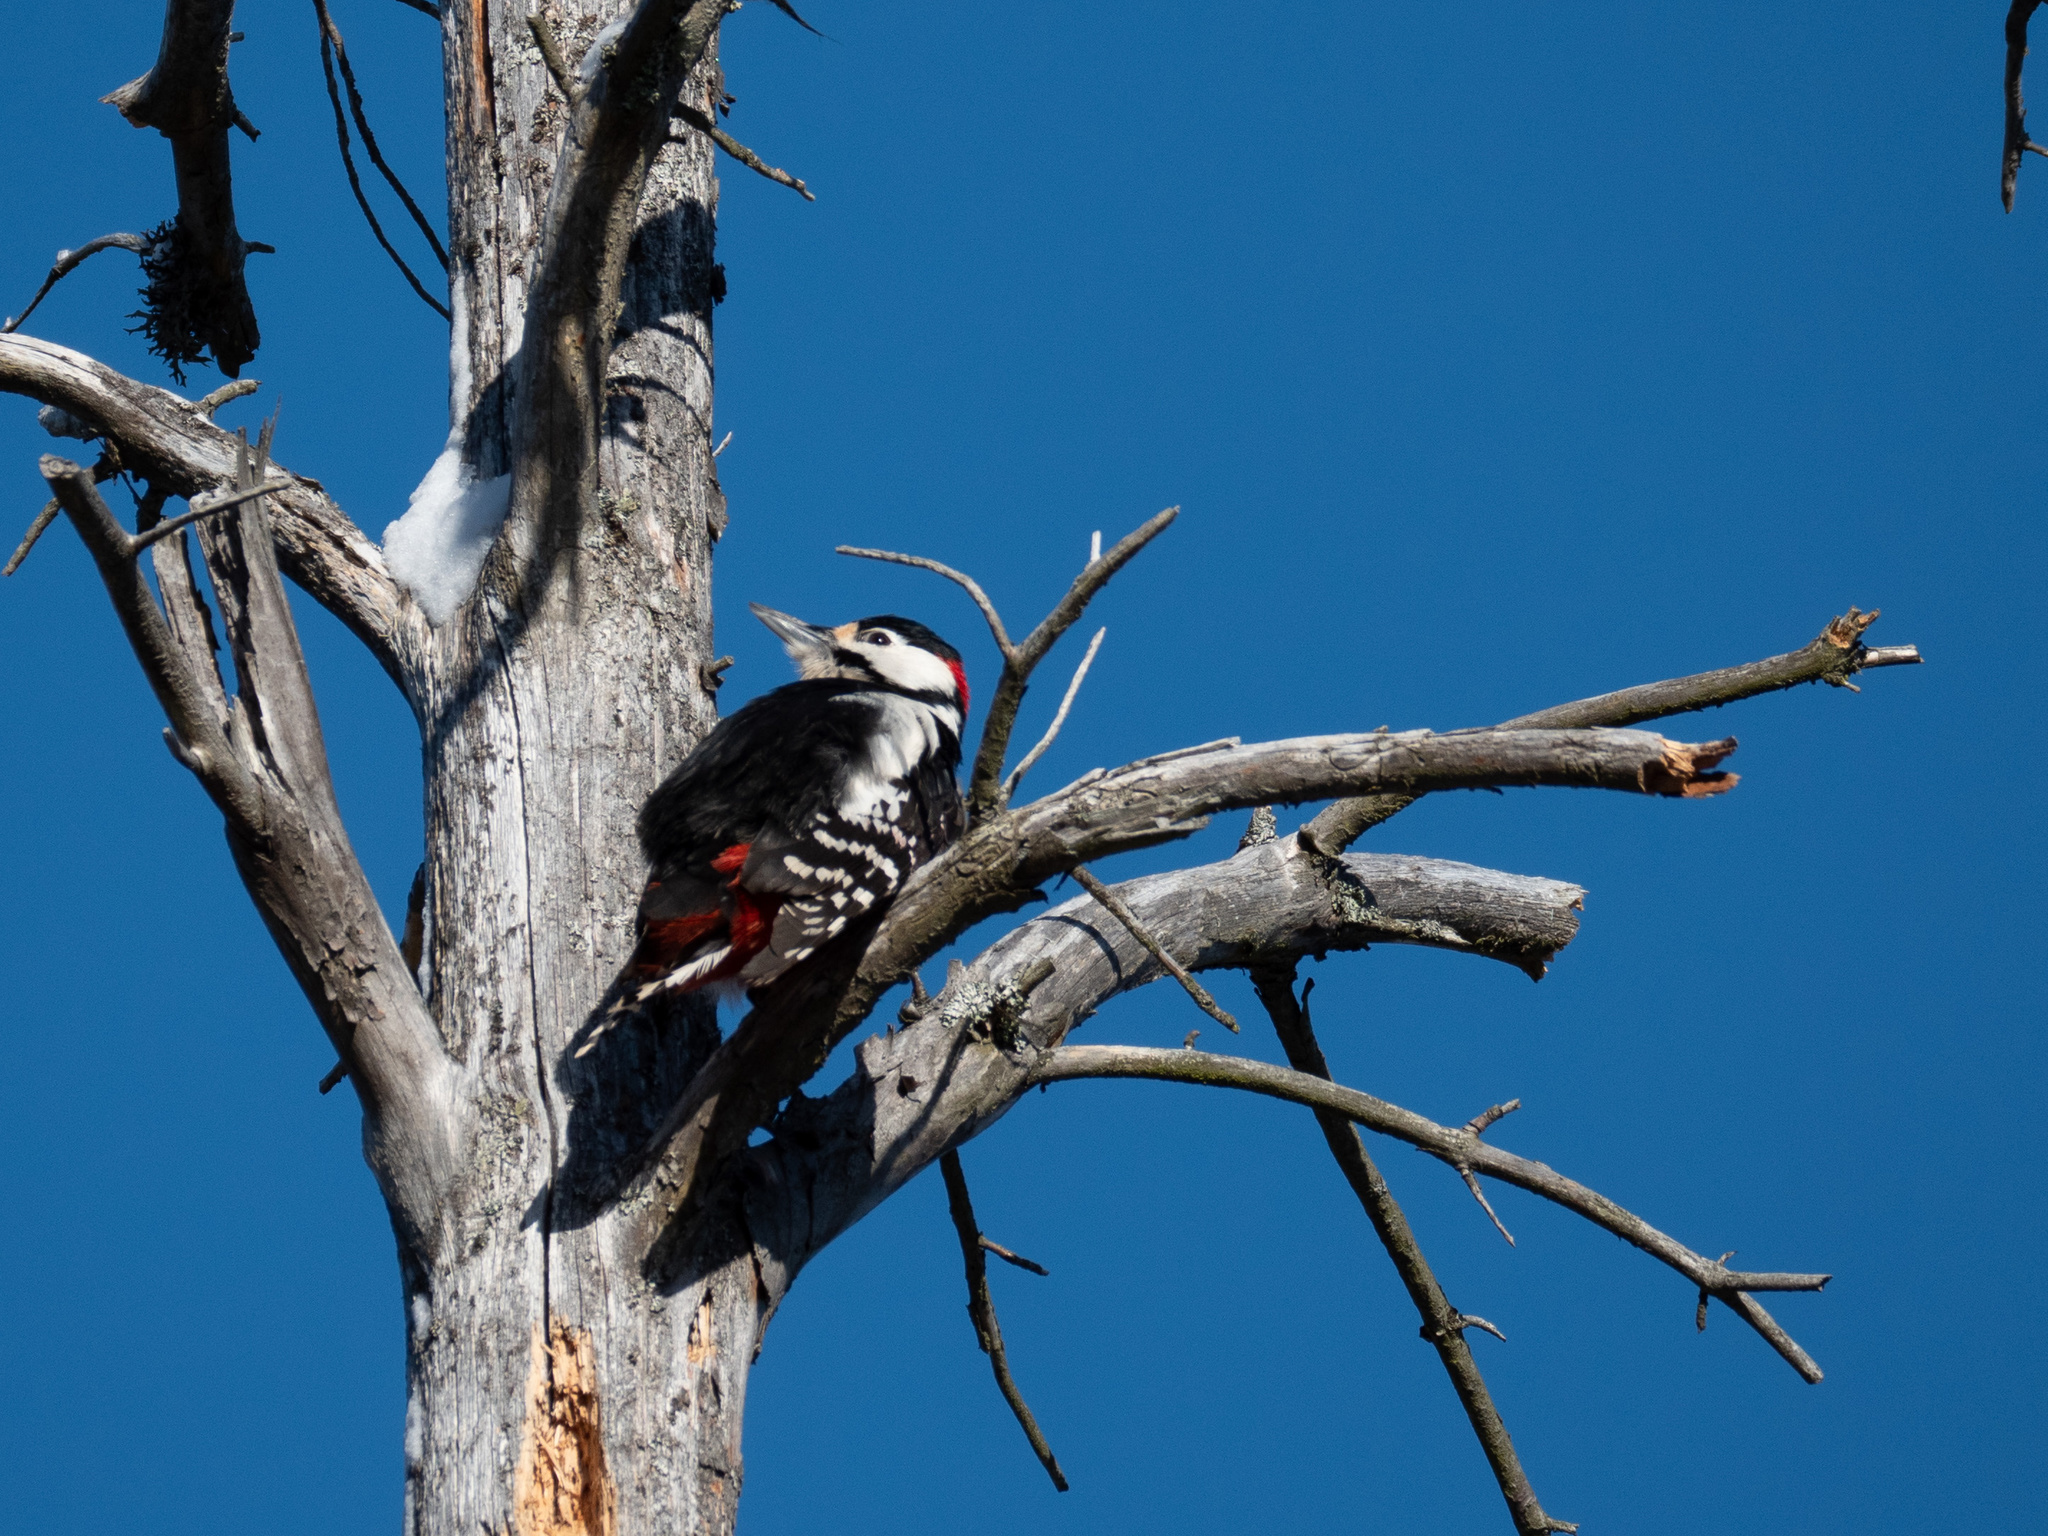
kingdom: Animalia
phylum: Chordata
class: Aves
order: Piciformes
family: Picidae
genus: Dendrocopos
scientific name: Dendrocopos major
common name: Great spotted woodpecker
